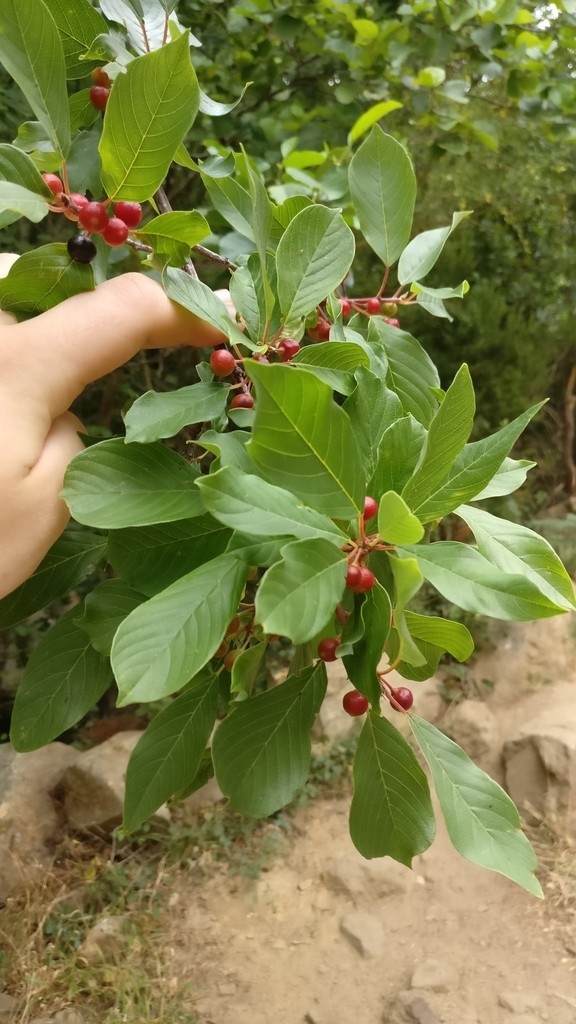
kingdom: Plantae
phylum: Tracheophyta
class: Magnoliopsida
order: Rosales
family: Rhamnaceae
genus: Frangula
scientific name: Frangula alnus
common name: Alder buckthorn
